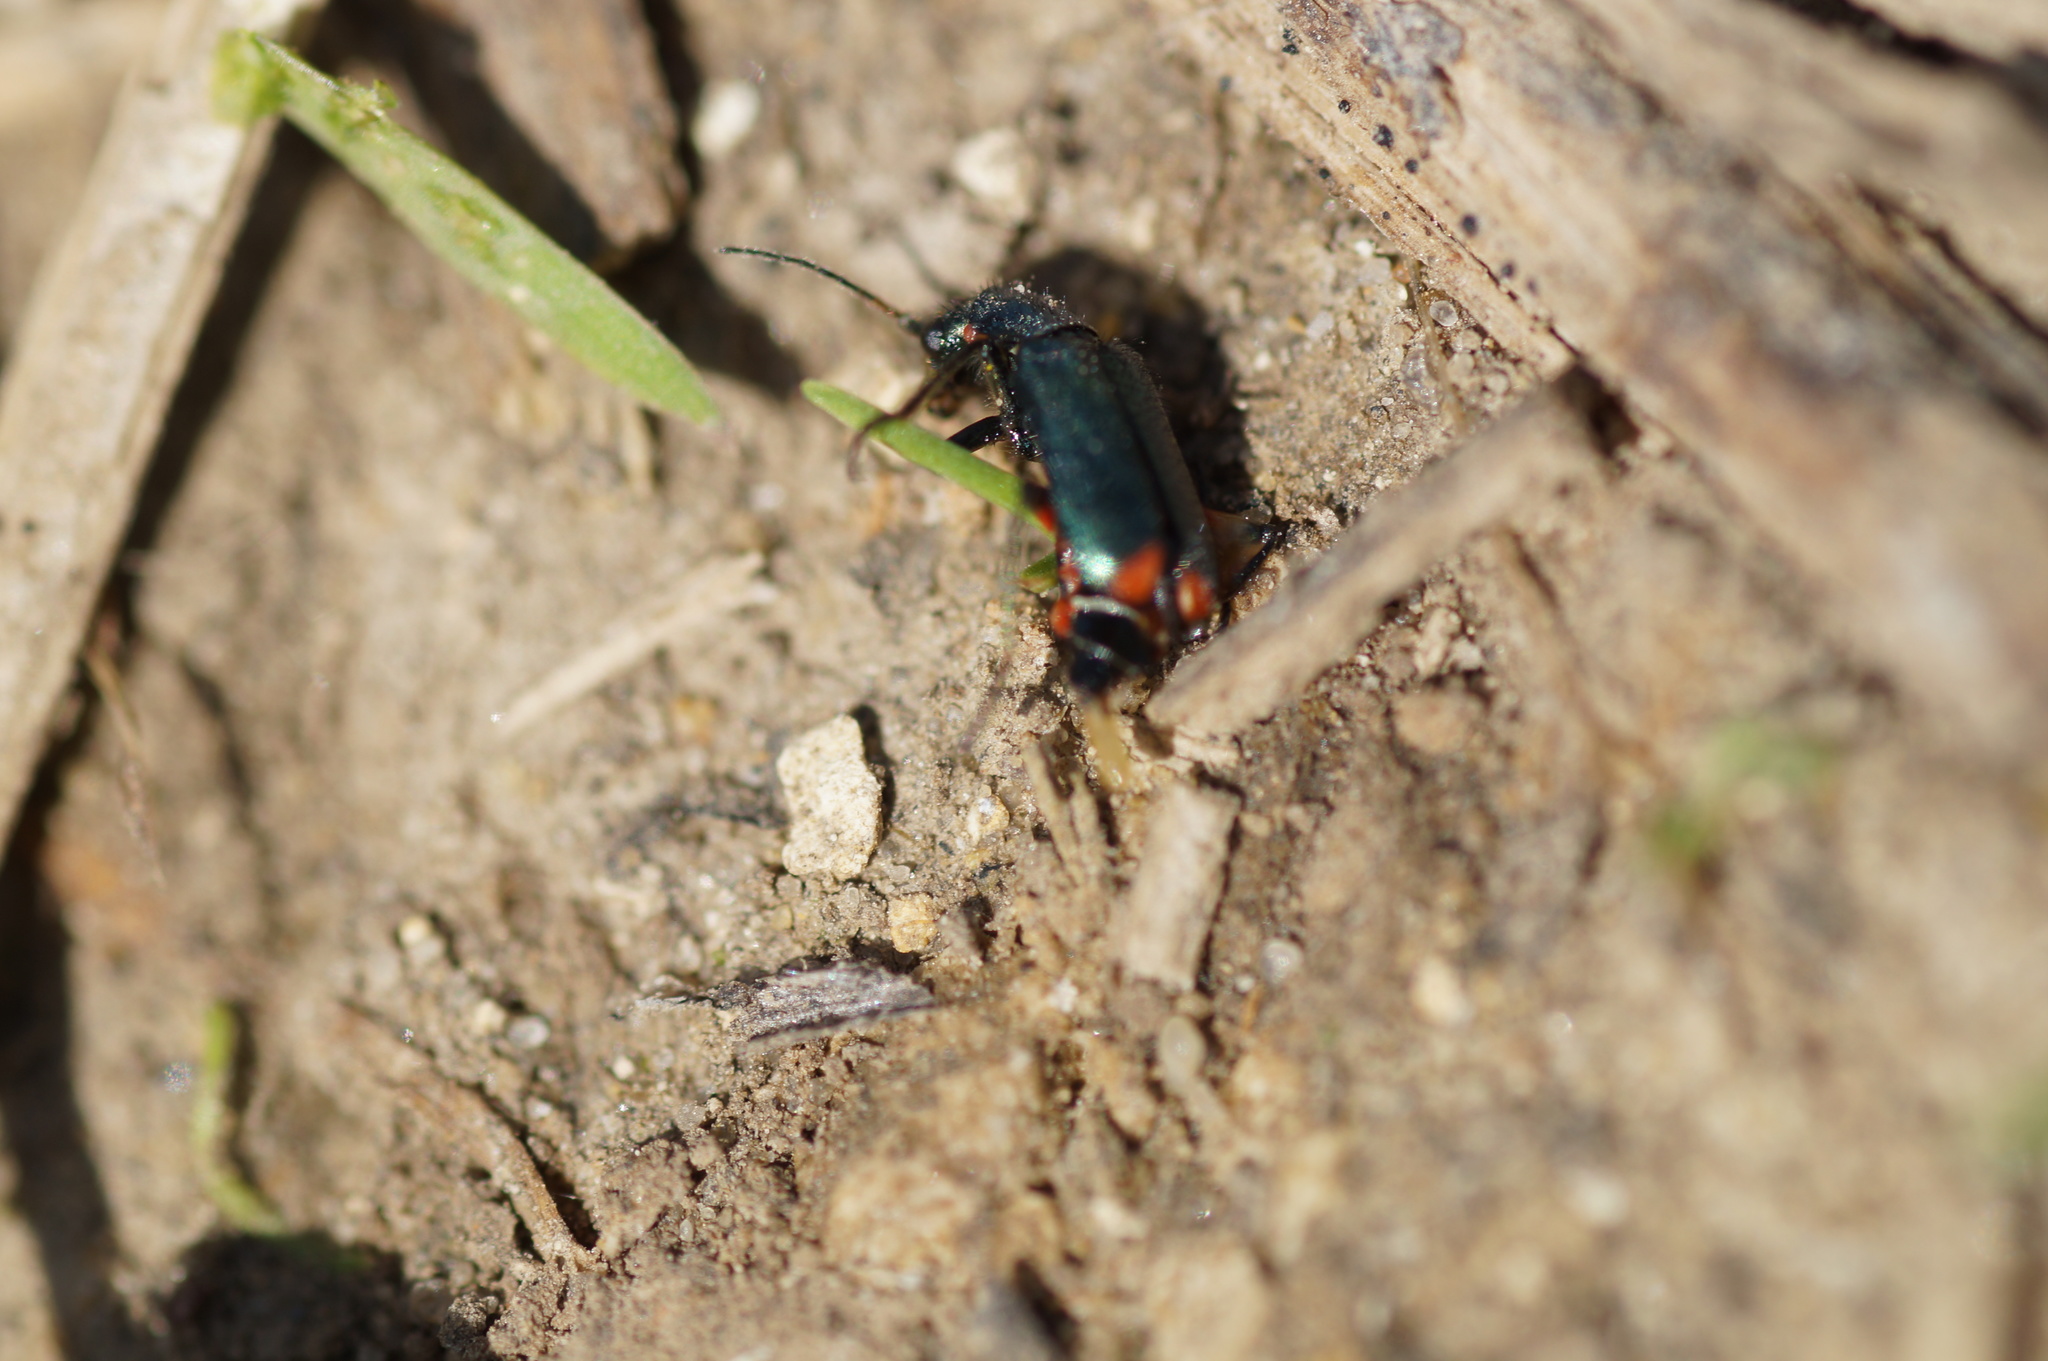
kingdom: Animalia
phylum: Arthropoda
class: Insecta
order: Coleoptera
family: Melyridae
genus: Malachius
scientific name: Malachius bipustulatus
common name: Malachite beetle
